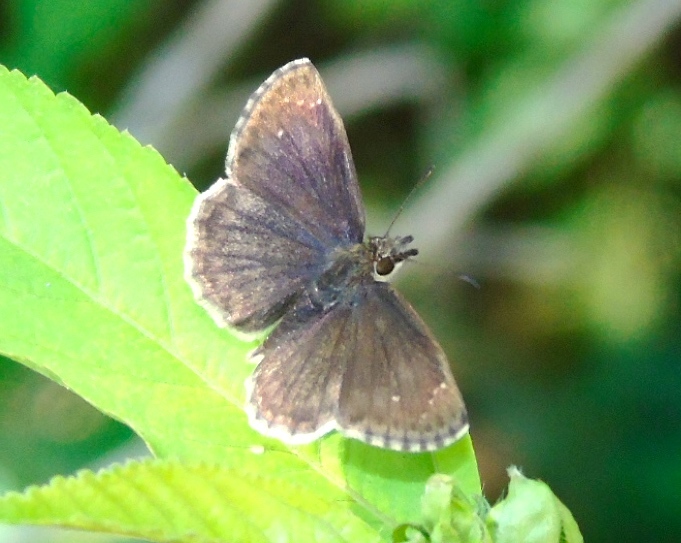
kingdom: Animalia
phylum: Arthropoda
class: Insecta
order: Lepidoptera
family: Hesperiidae
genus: Zopyrion
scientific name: Zopyrion sandace
